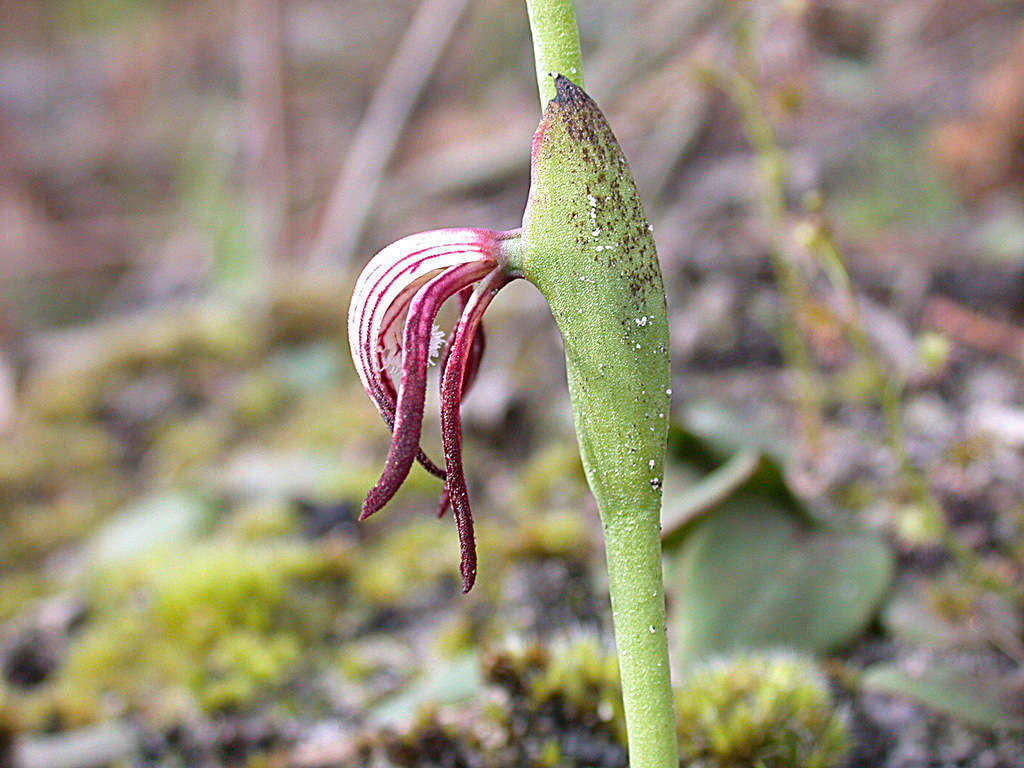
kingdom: Plantae
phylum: Tracheophyta
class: Liliopsida
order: Asparagales
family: Orchidaceae
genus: Pyrorchis
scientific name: Pyrorchis nigricans
